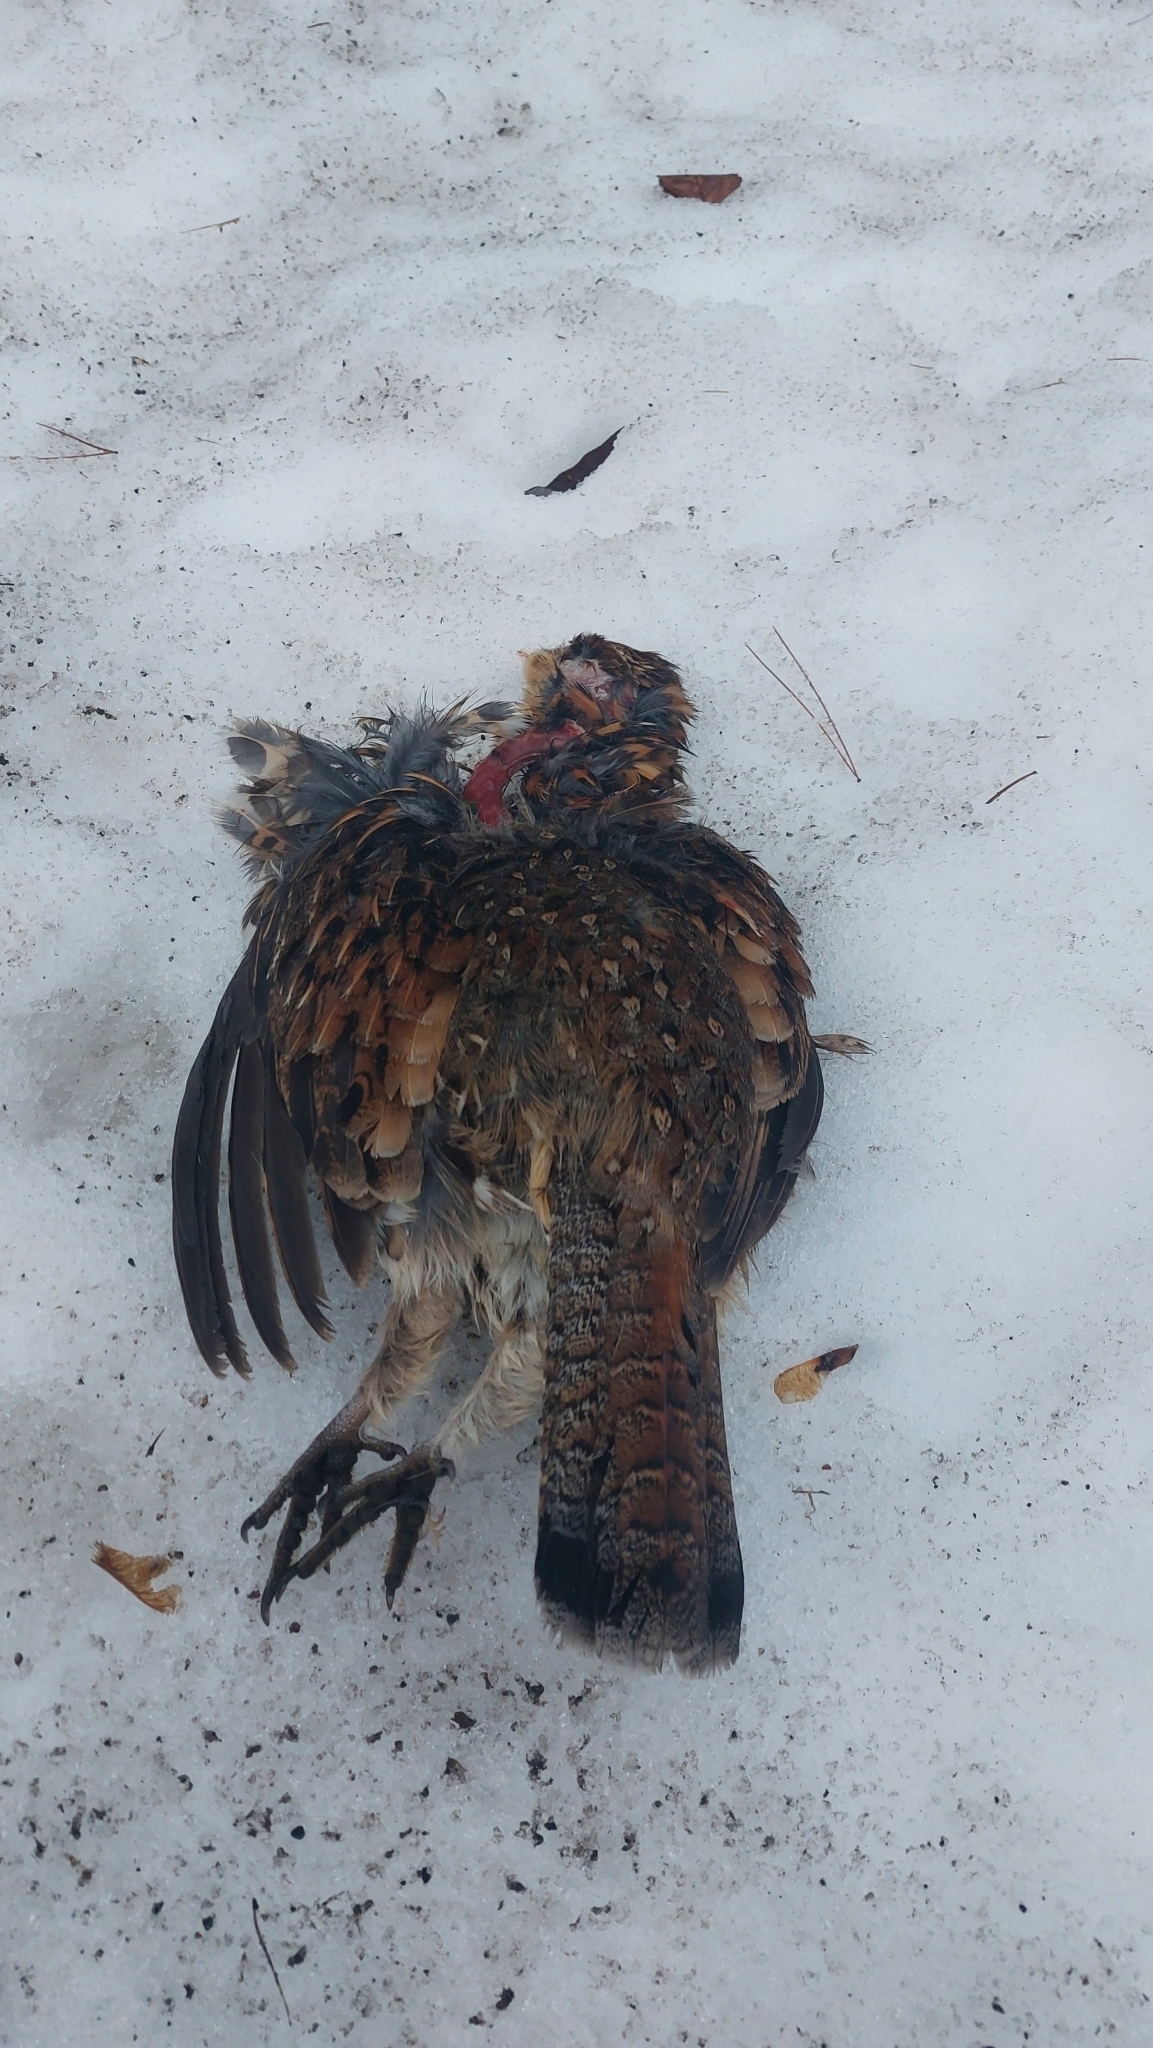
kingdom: Animalia
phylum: Chordata
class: Aves
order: Galliformes
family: Phasianidae
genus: Bonasa
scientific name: Bonasa umbellus
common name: Ruffed grouse
